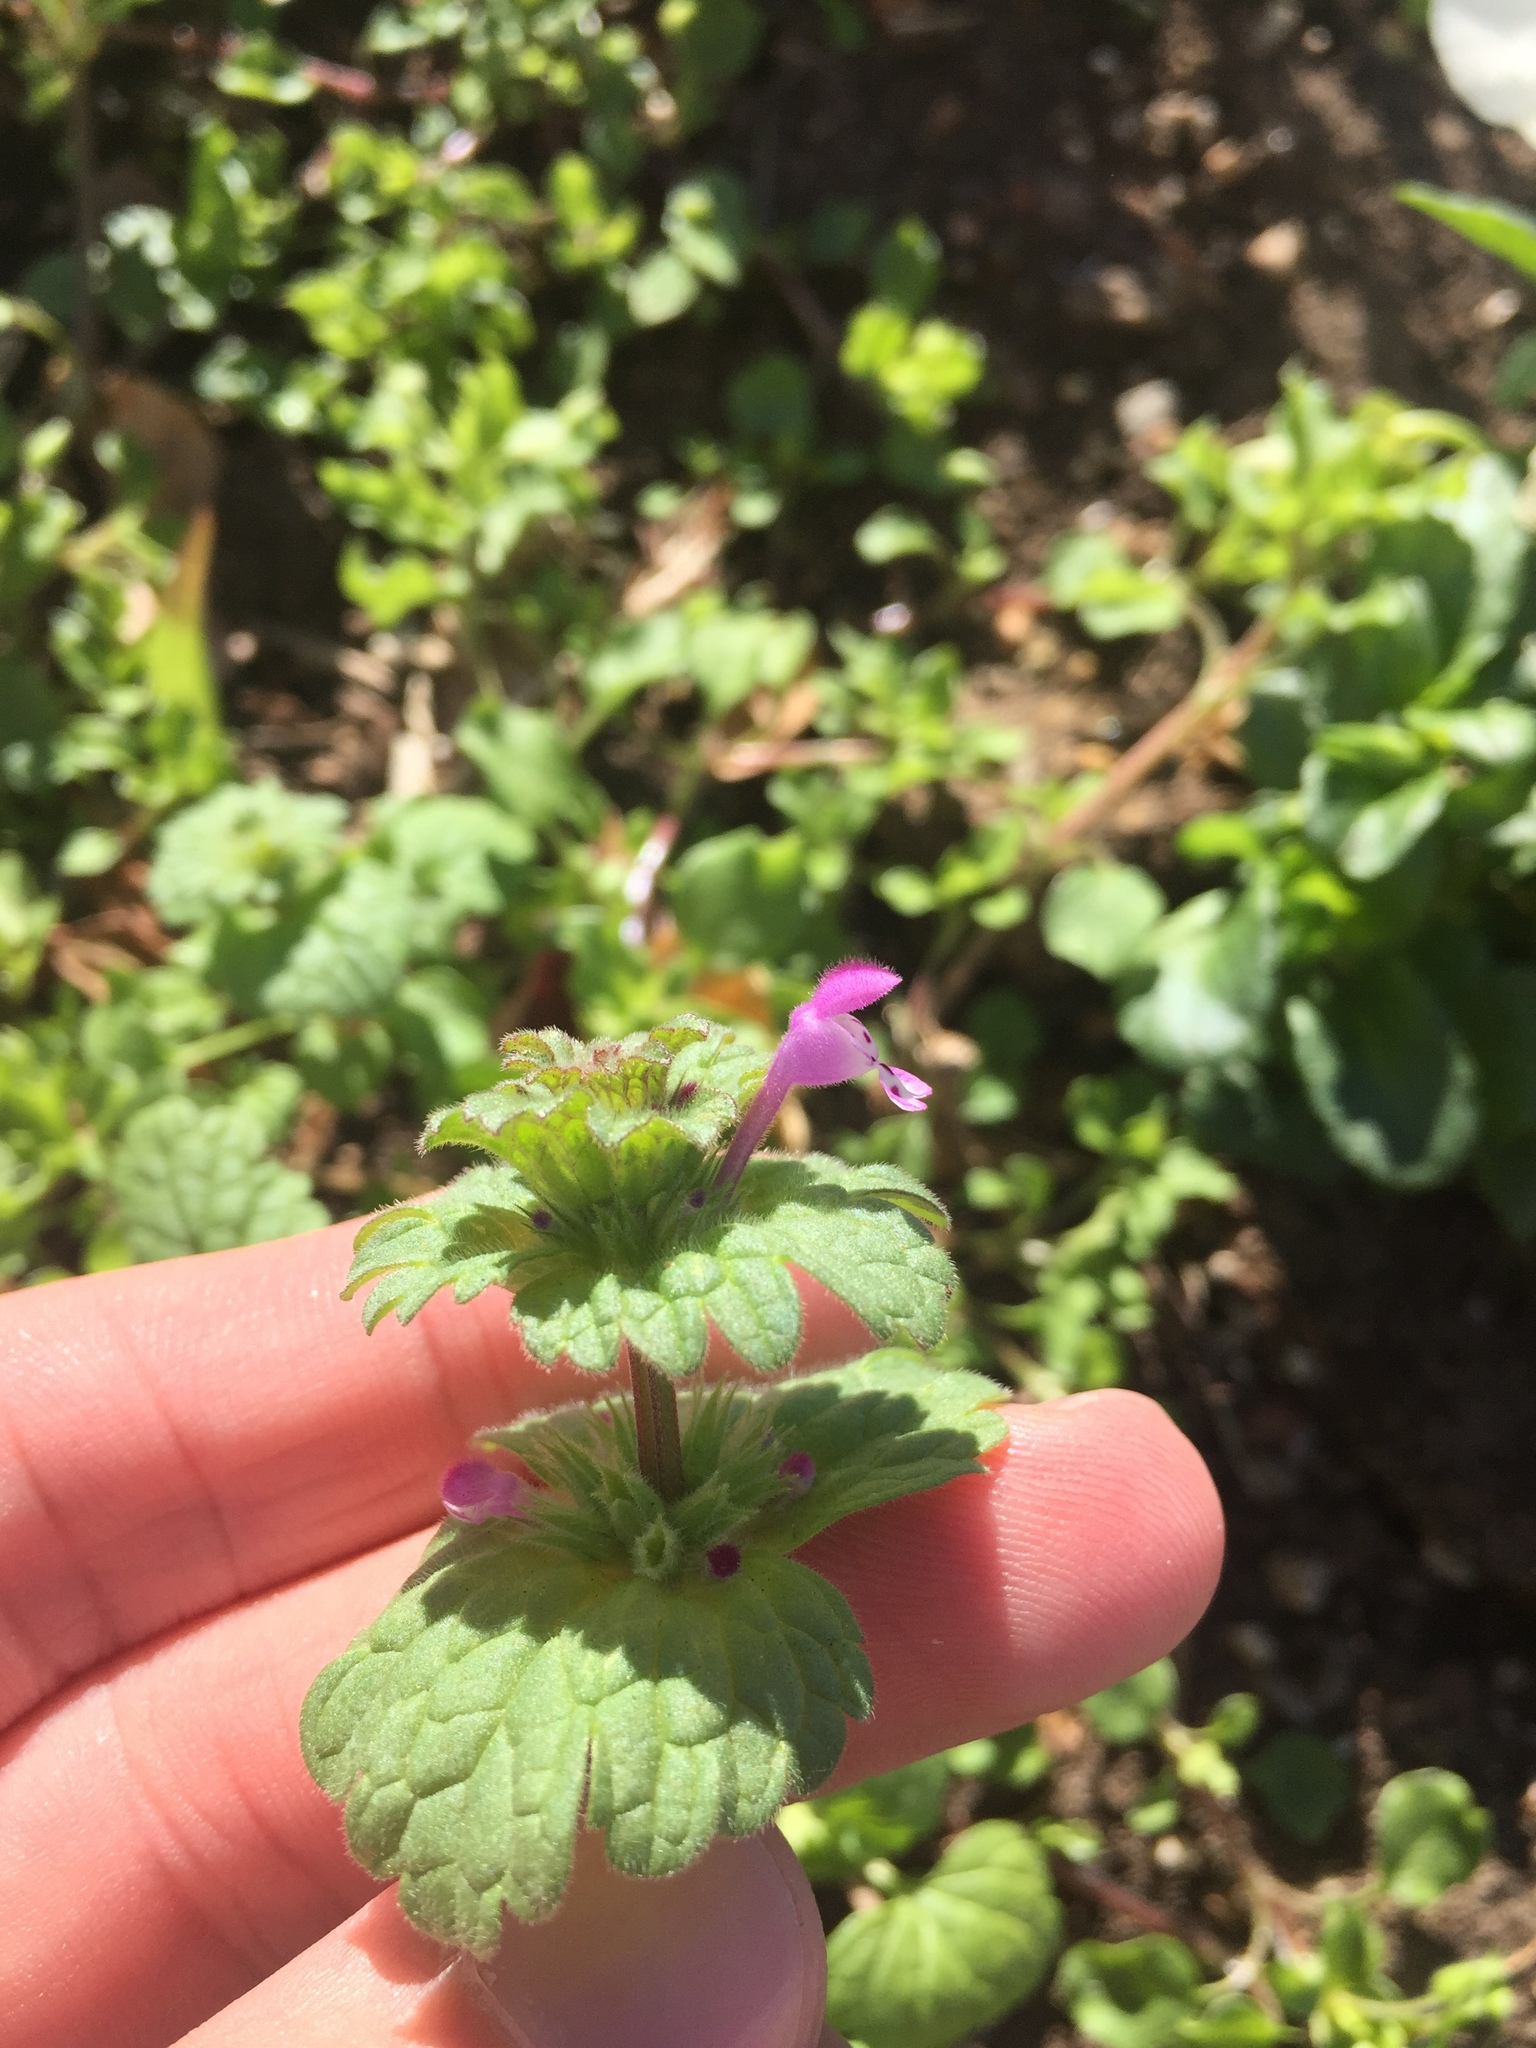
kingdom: Plantae
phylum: Tracheophyta
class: Magnoliopsida
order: Lamiales
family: Lamiaceae
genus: Lamium
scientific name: Lamium amplexicaule
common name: Henbit dead-nettle
